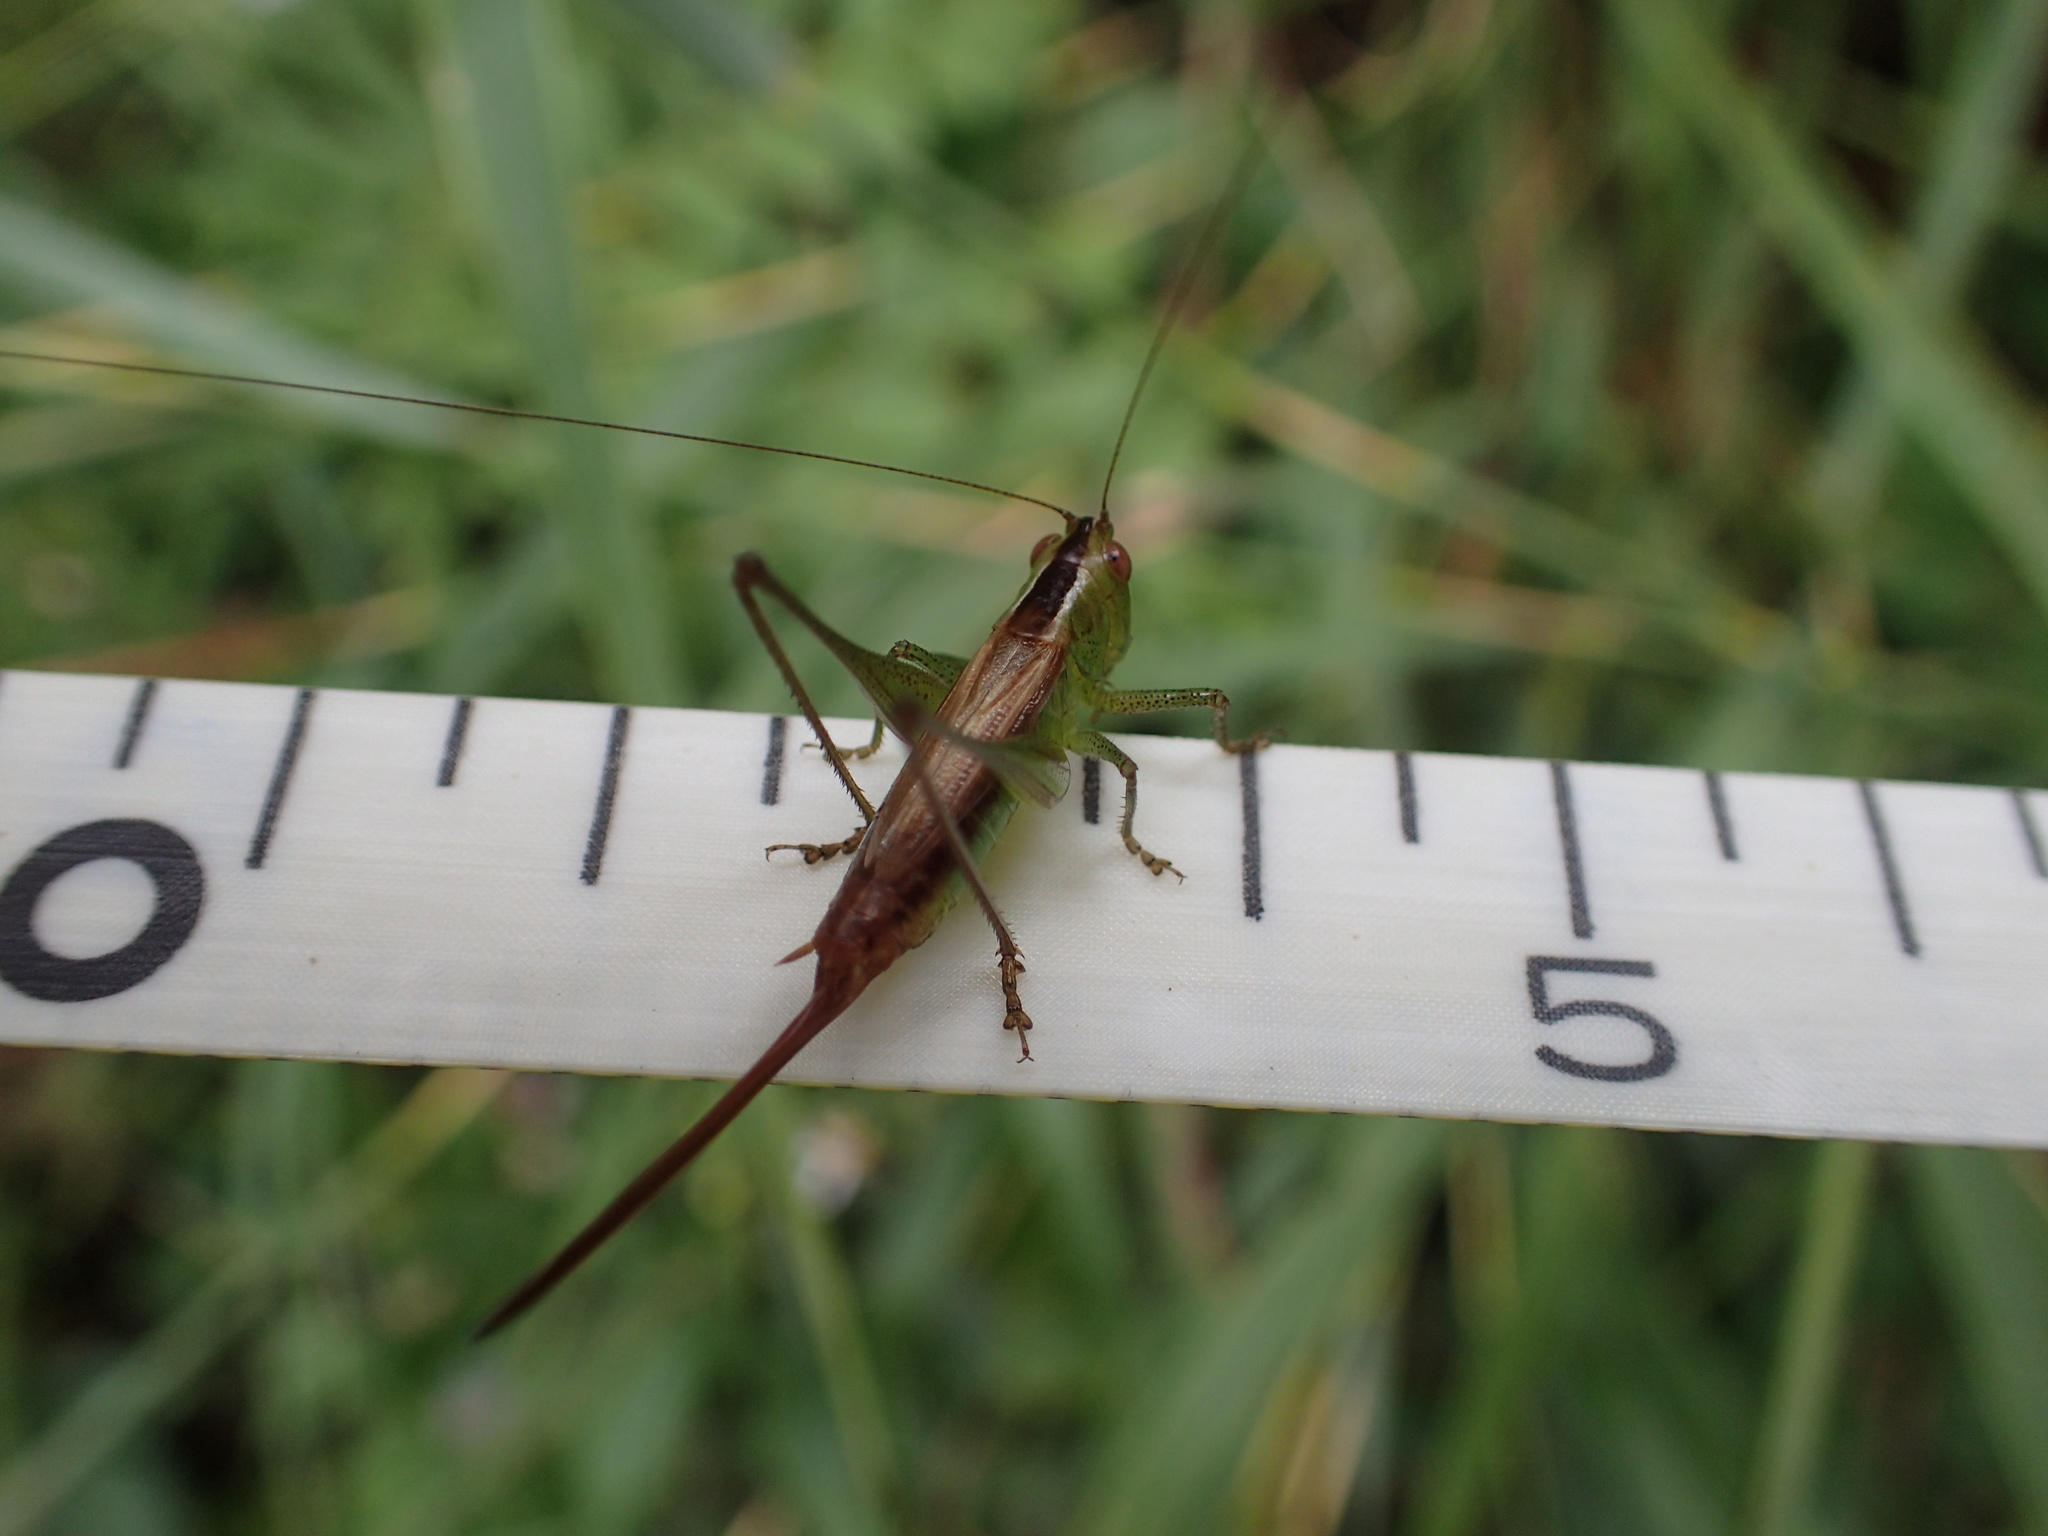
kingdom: Animalia
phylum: Arthropoda
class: Insecta
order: Orthoptera
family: Tettigoniidae
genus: Conocephalus
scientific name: Conocephalus brevipennis
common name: Short-winged meadow katydid
